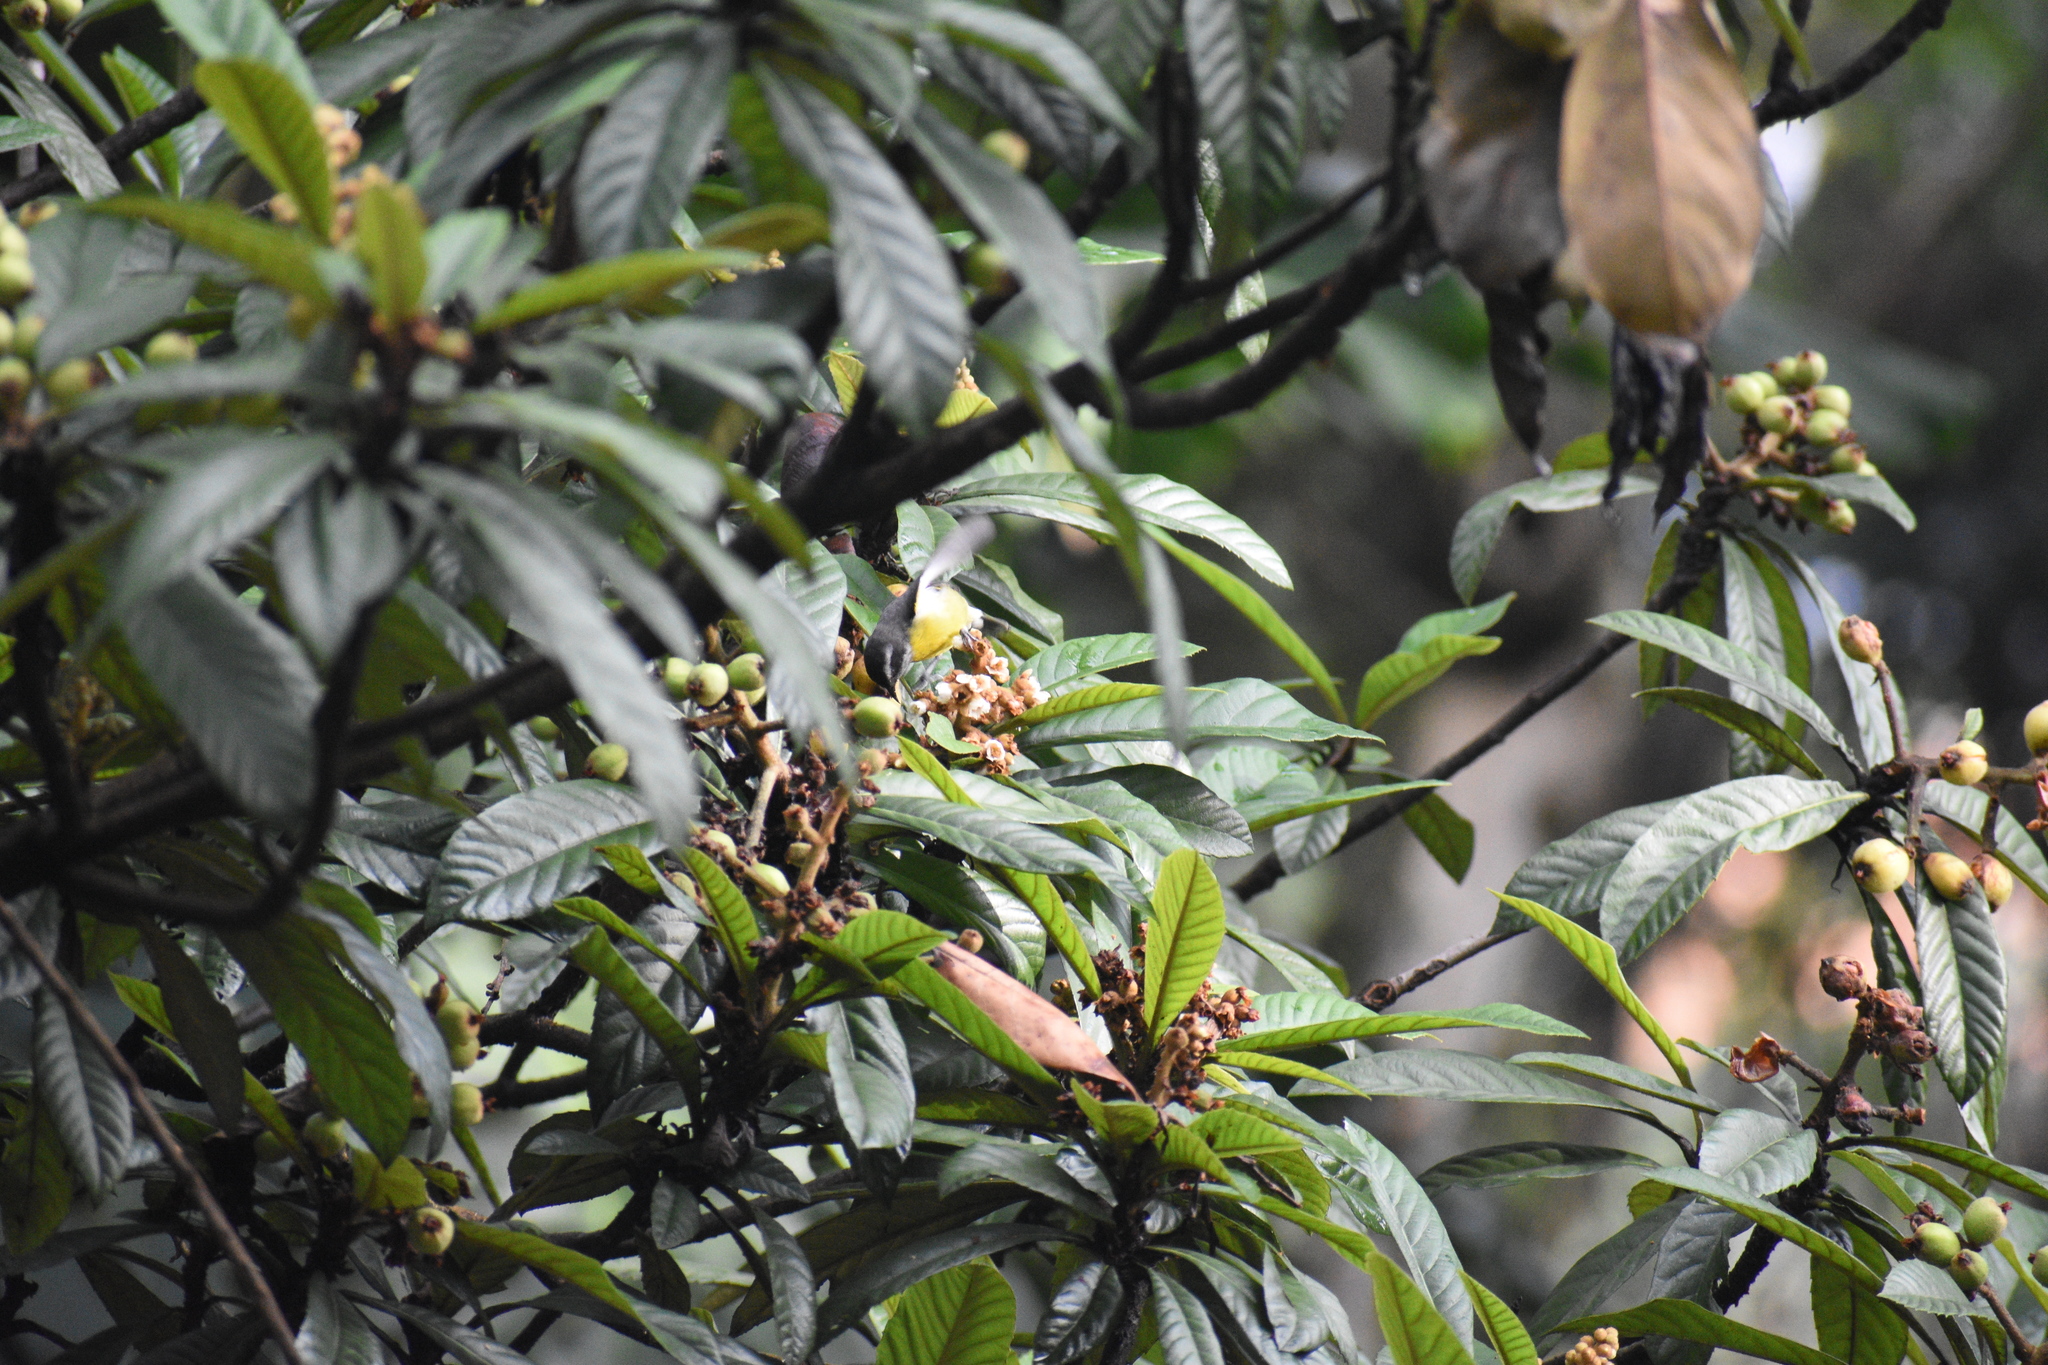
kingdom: Animalia
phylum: Chordata
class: Aves
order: Passeriformes
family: Thraupidae
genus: Coereba
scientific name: Coereba flaveola
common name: Bananaquit
